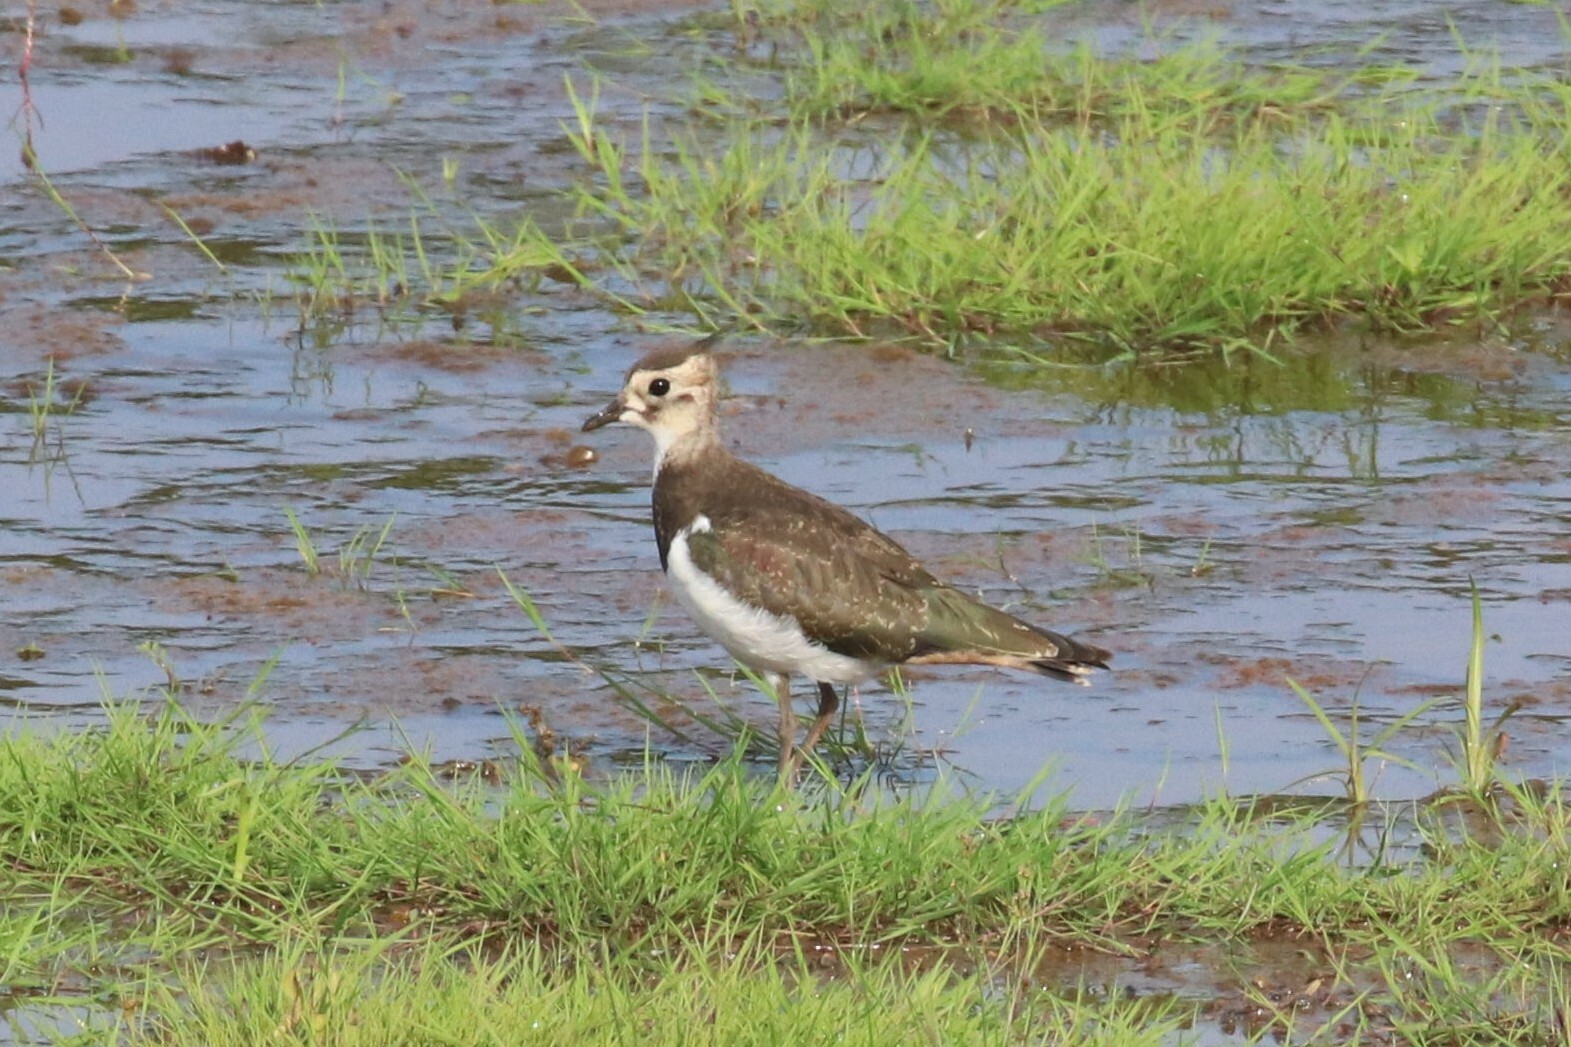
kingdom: Animalia
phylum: Chordata
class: Aves
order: Charadriiformes
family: Charadriidae
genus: Vanellus
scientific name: Vanellus vanellus
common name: Northern lapwing
